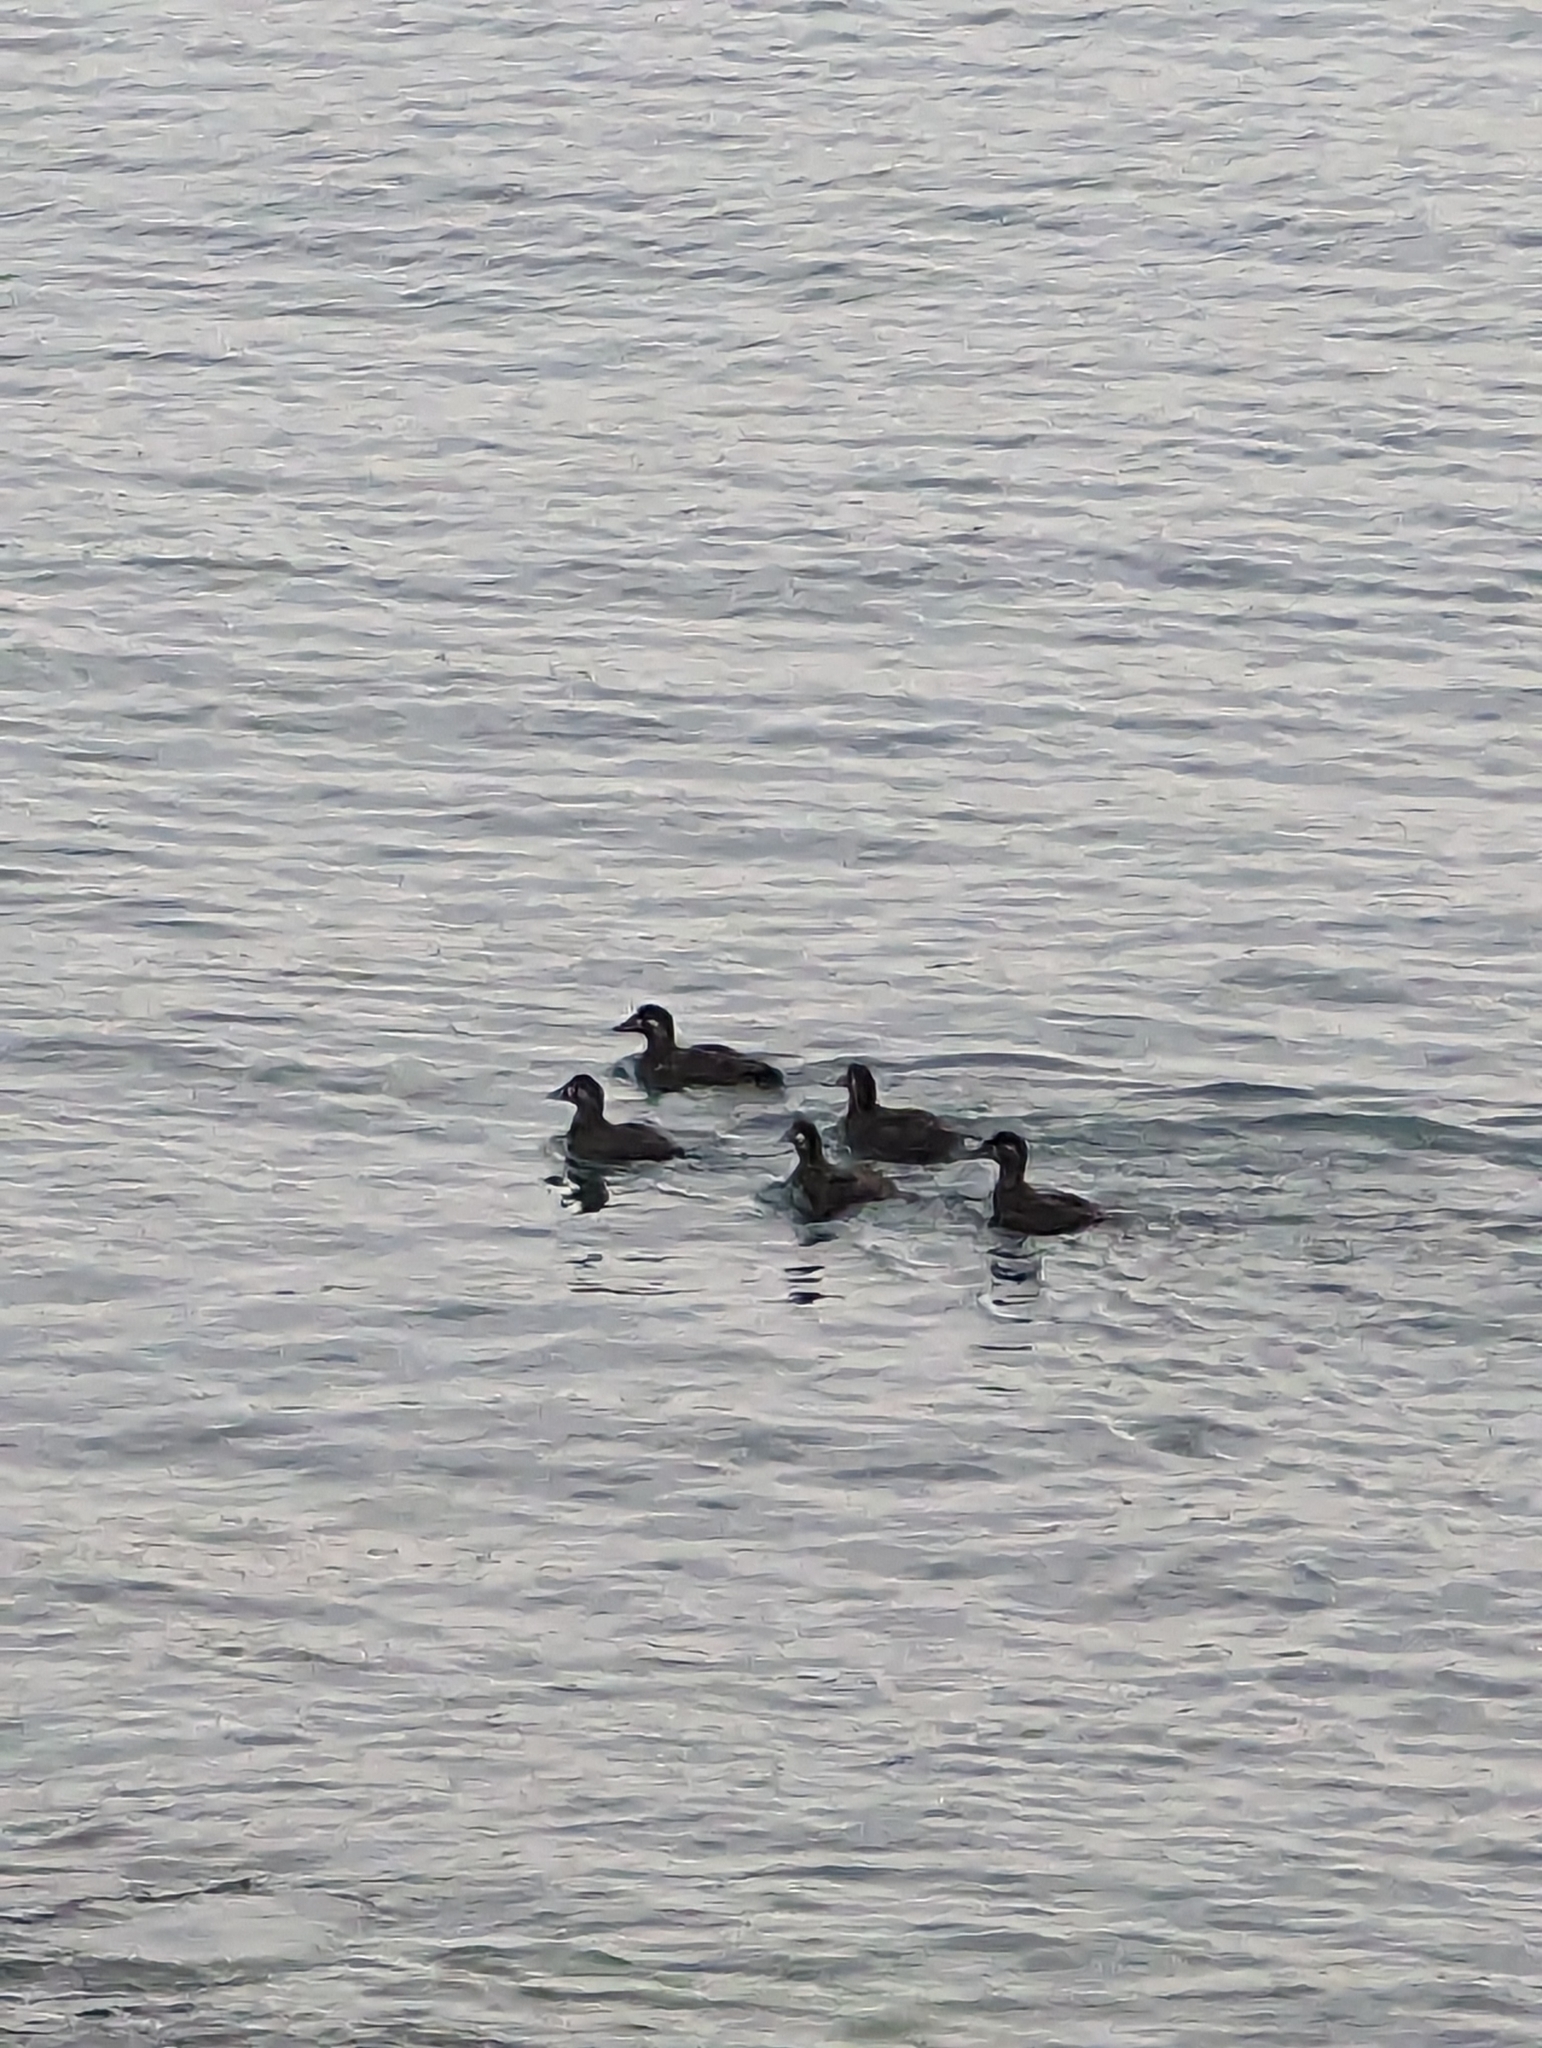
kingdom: Animalia
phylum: Chordata
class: Aves
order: Anseriformes
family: Anatidae
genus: Melanitta
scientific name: Melanitta perspicillata
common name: Surf scoter
